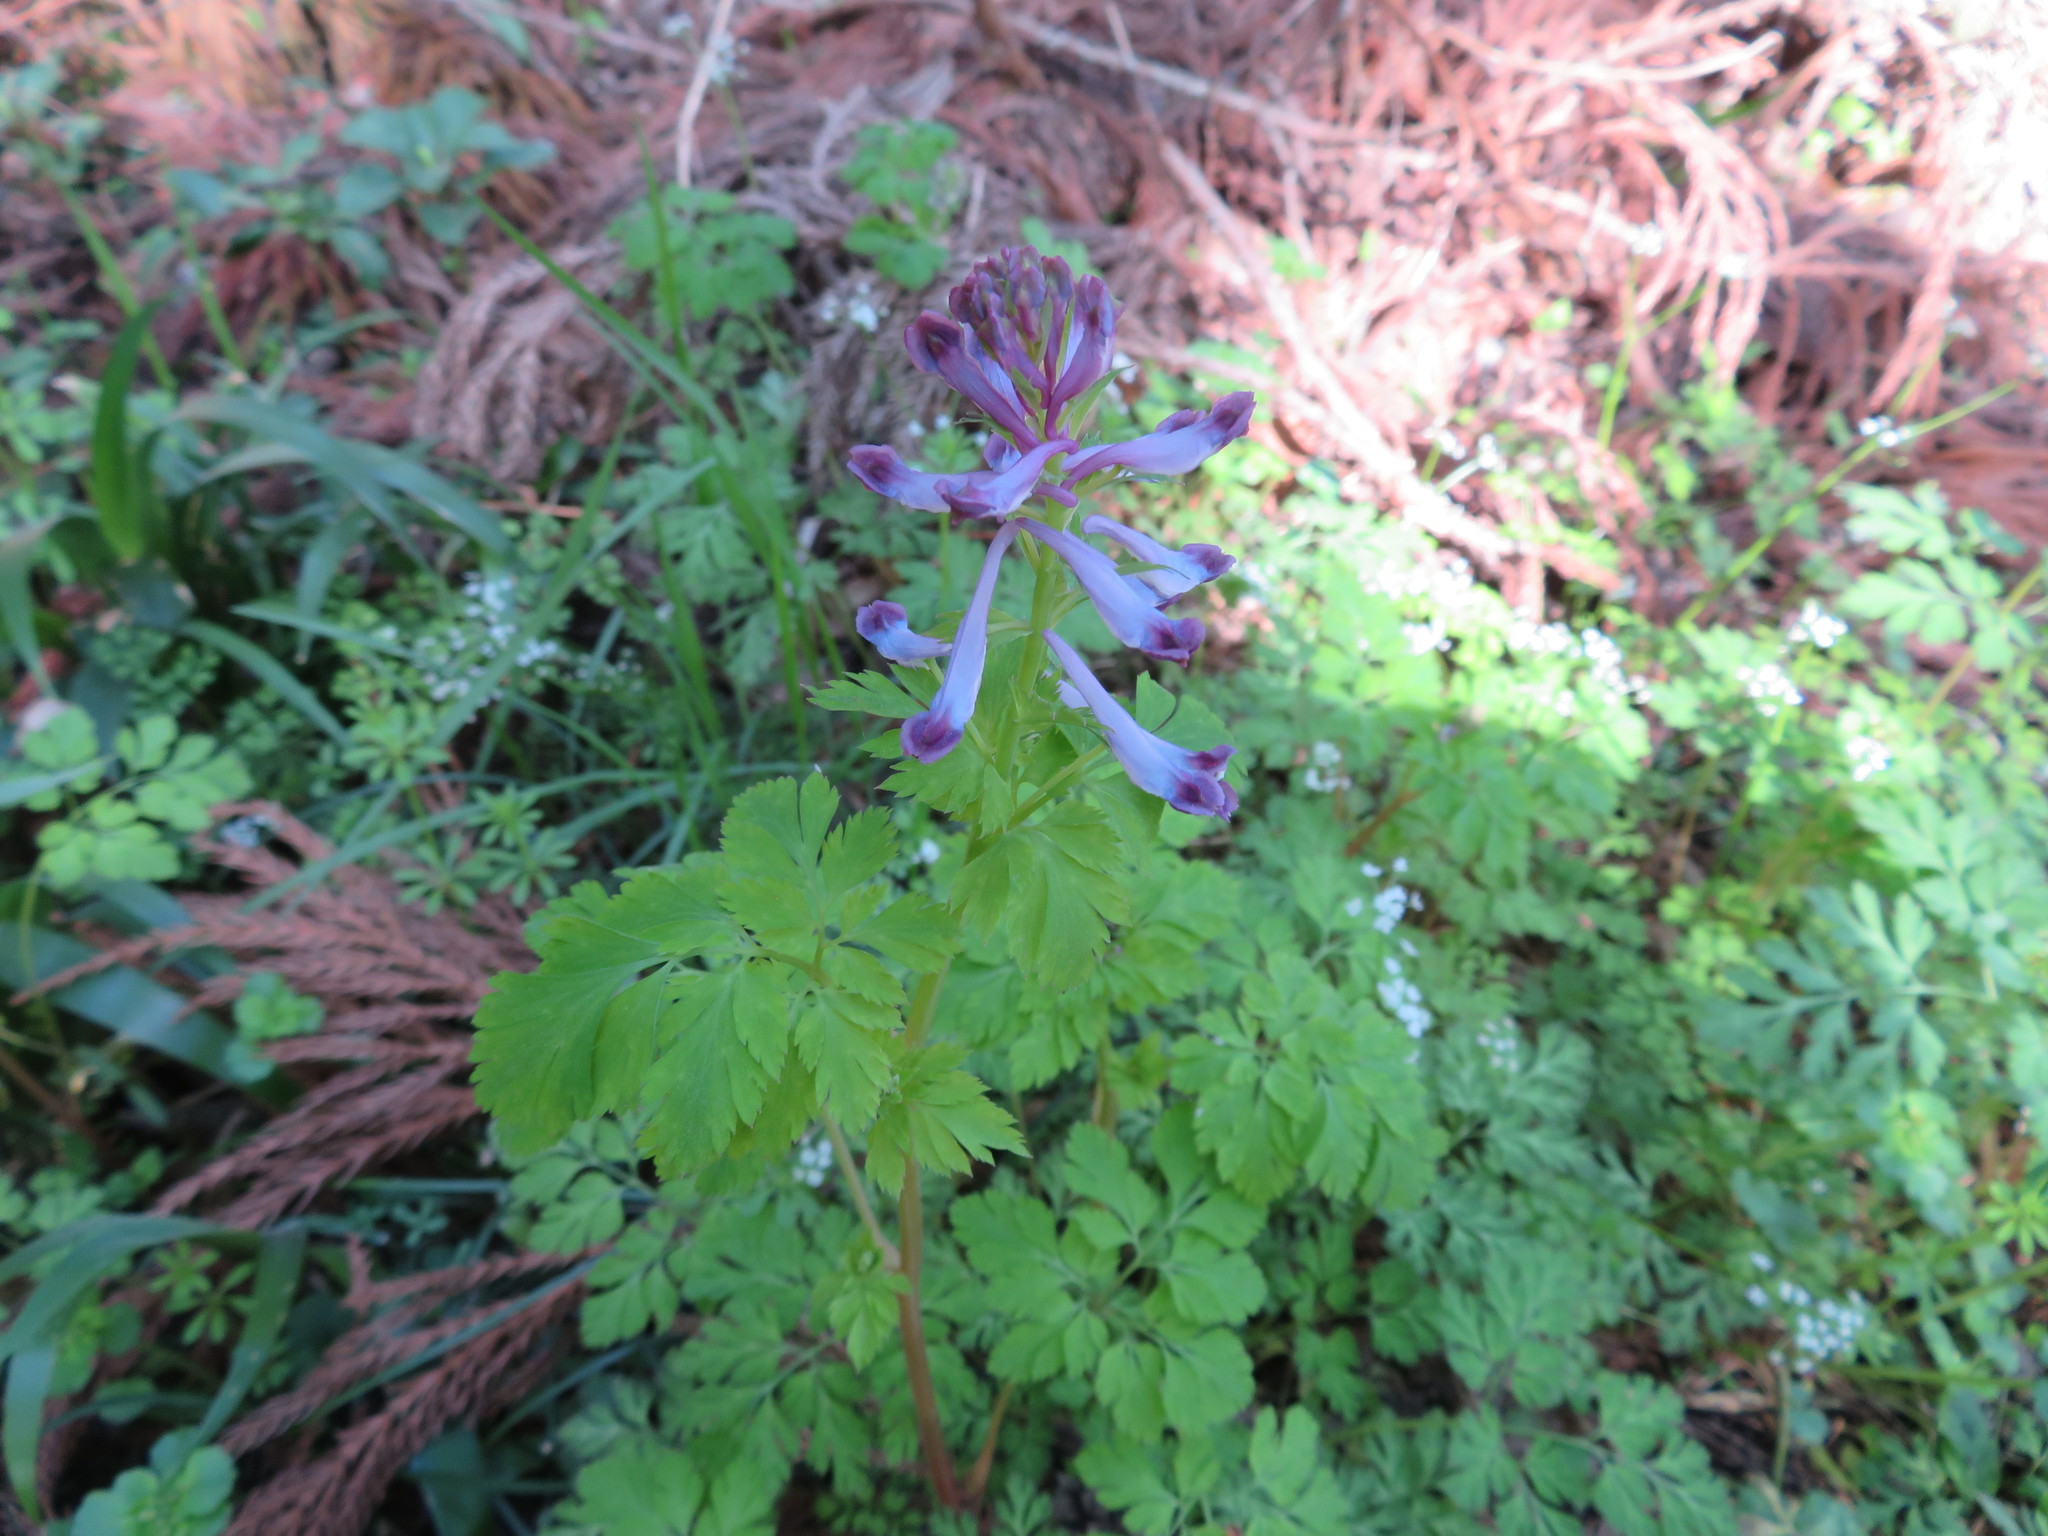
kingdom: Plantae
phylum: Tracheophyta
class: Magnoliopsida
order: Ranunculales
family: Papaveraceae
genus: Corydalis
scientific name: Corydalis incisa
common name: Incised fumewort
